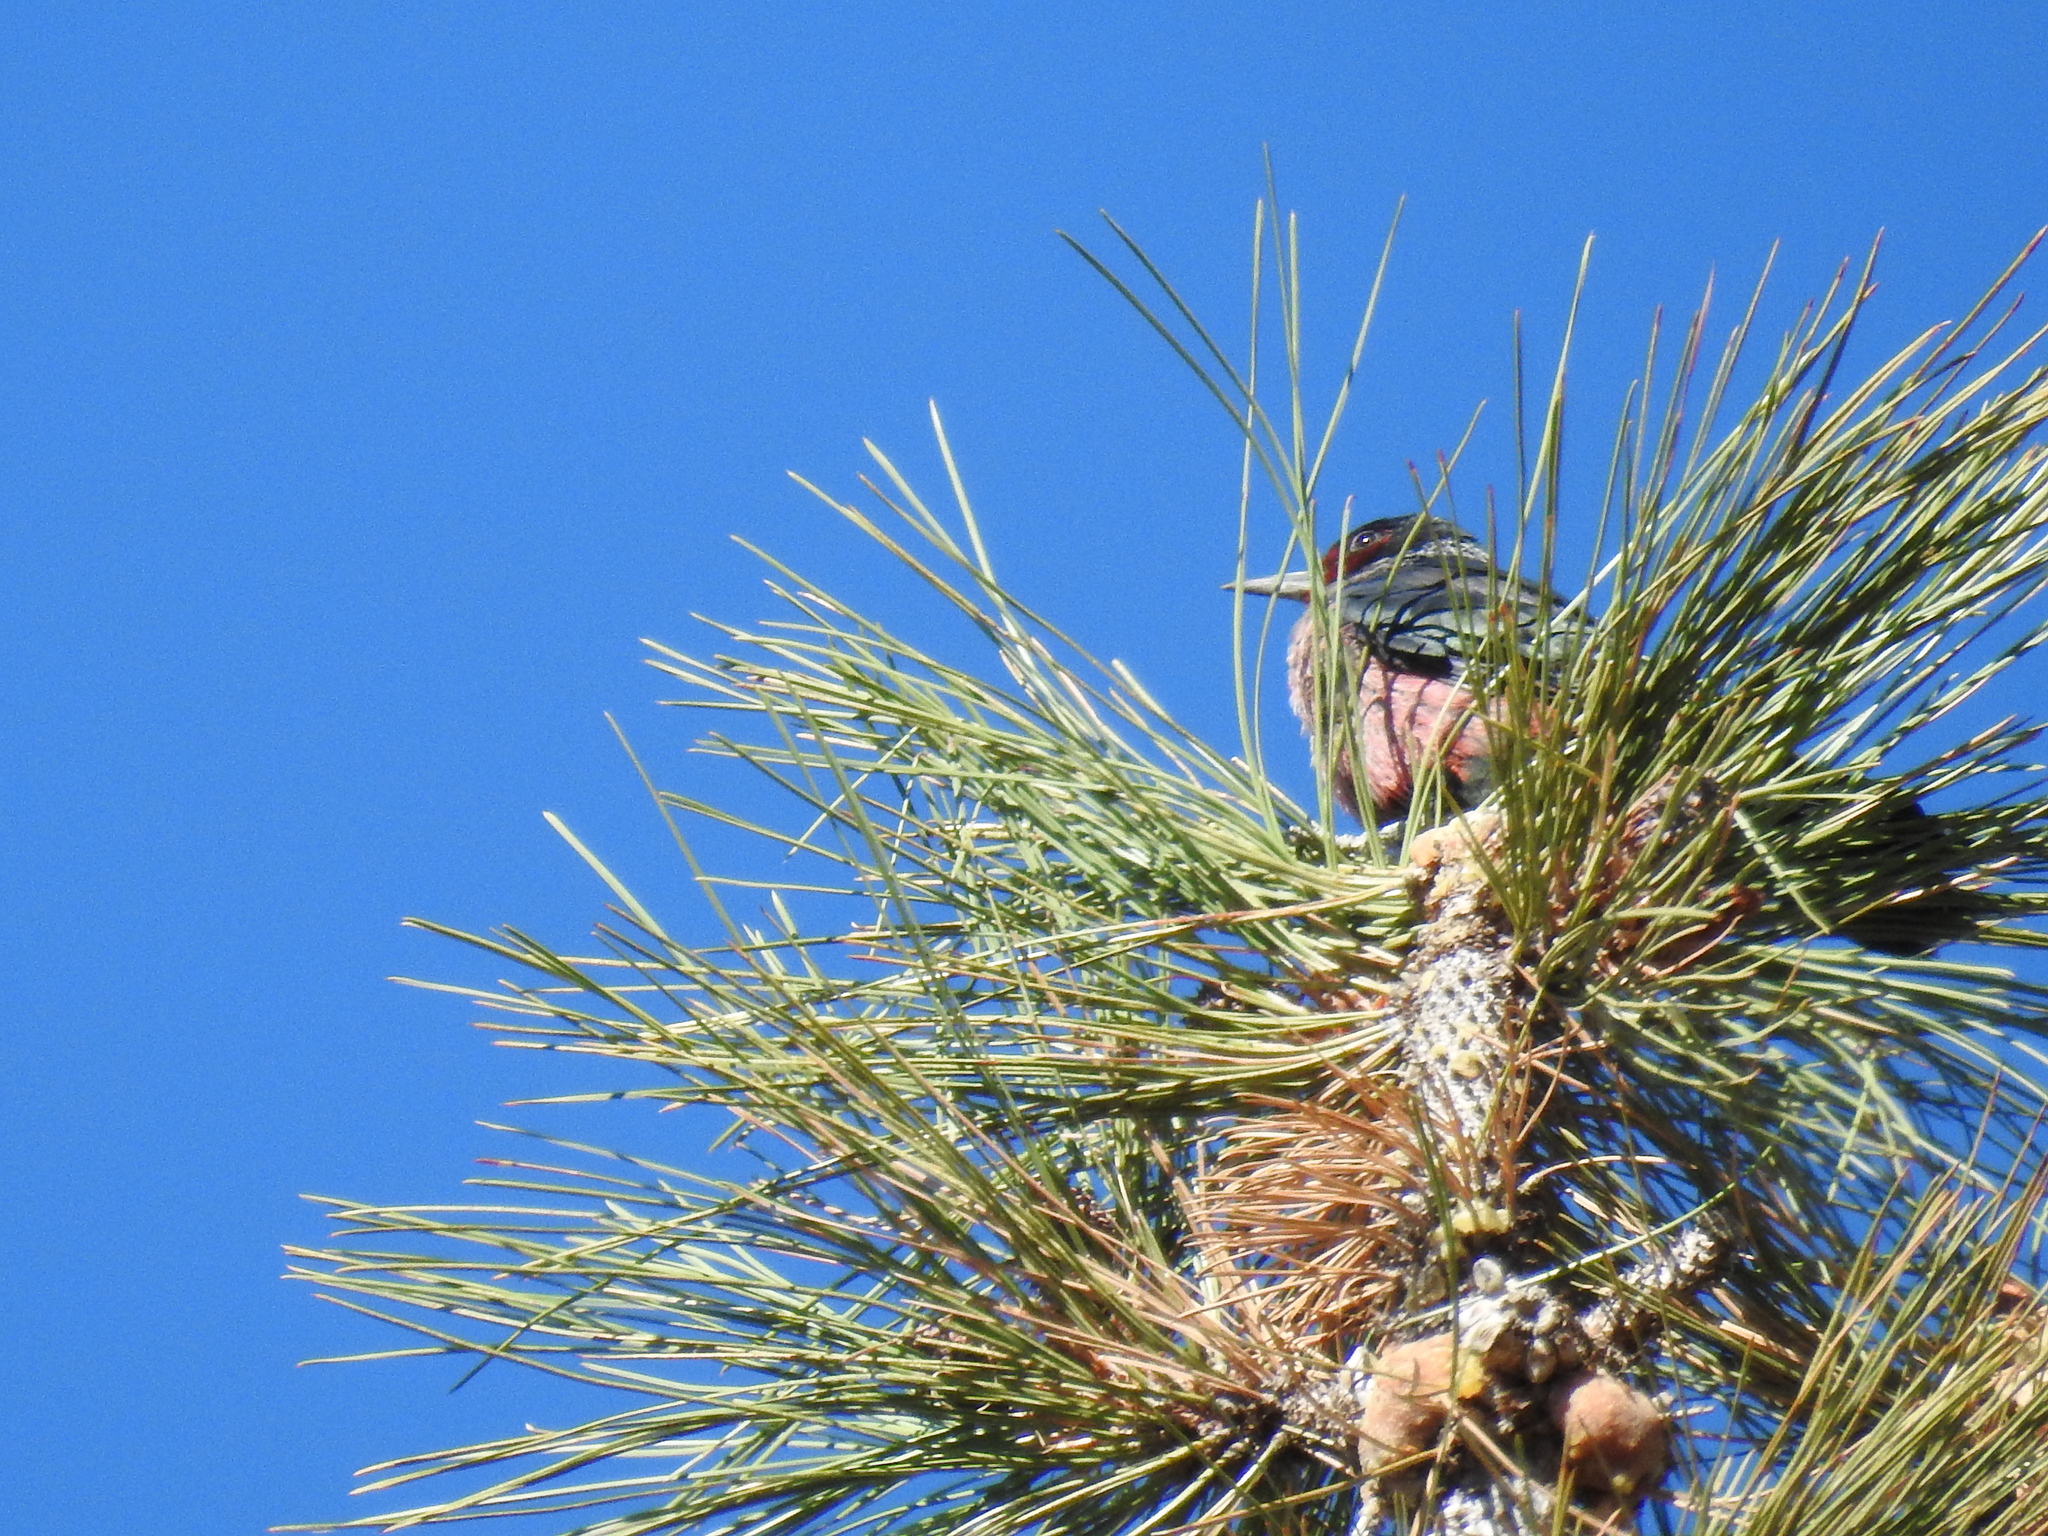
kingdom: Animalia
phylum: Chordata
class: Aves
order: Piciformes
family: Picidae
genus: Melanerpes
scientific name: Melanerpes lewis
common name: Lewis's woodpecker
